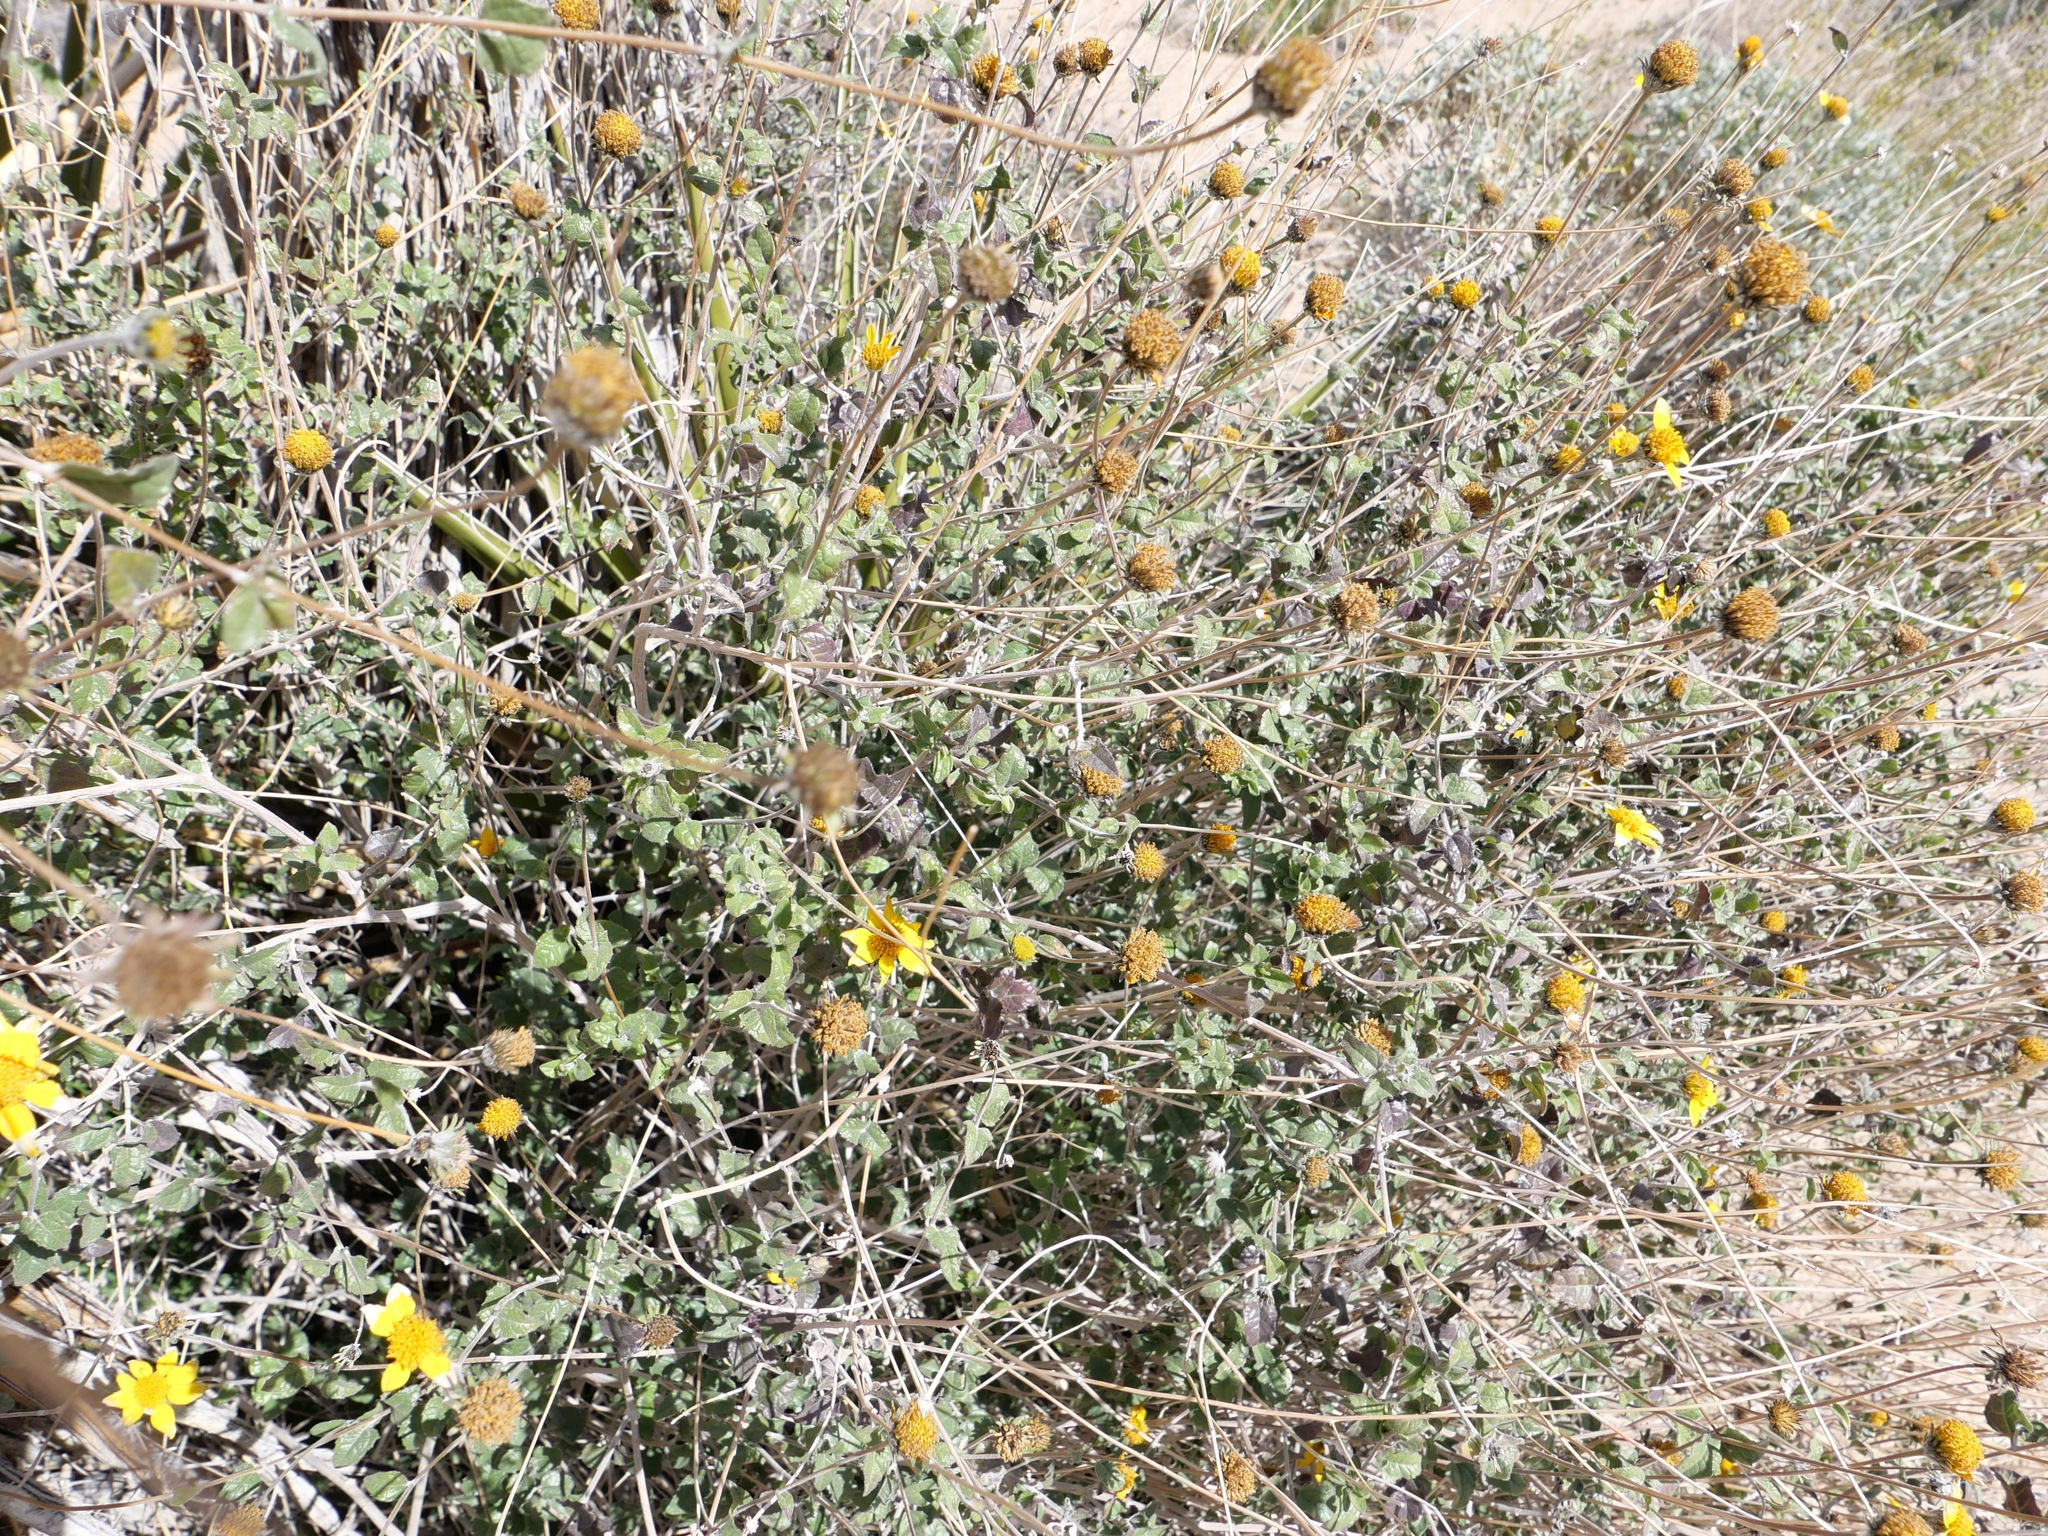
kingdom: Plantae
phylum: Tracheophyta
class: Magnoliopsida
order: Asterales
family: Asteraceae
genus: Bahiopsis
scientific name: Bahiopsis parishii
